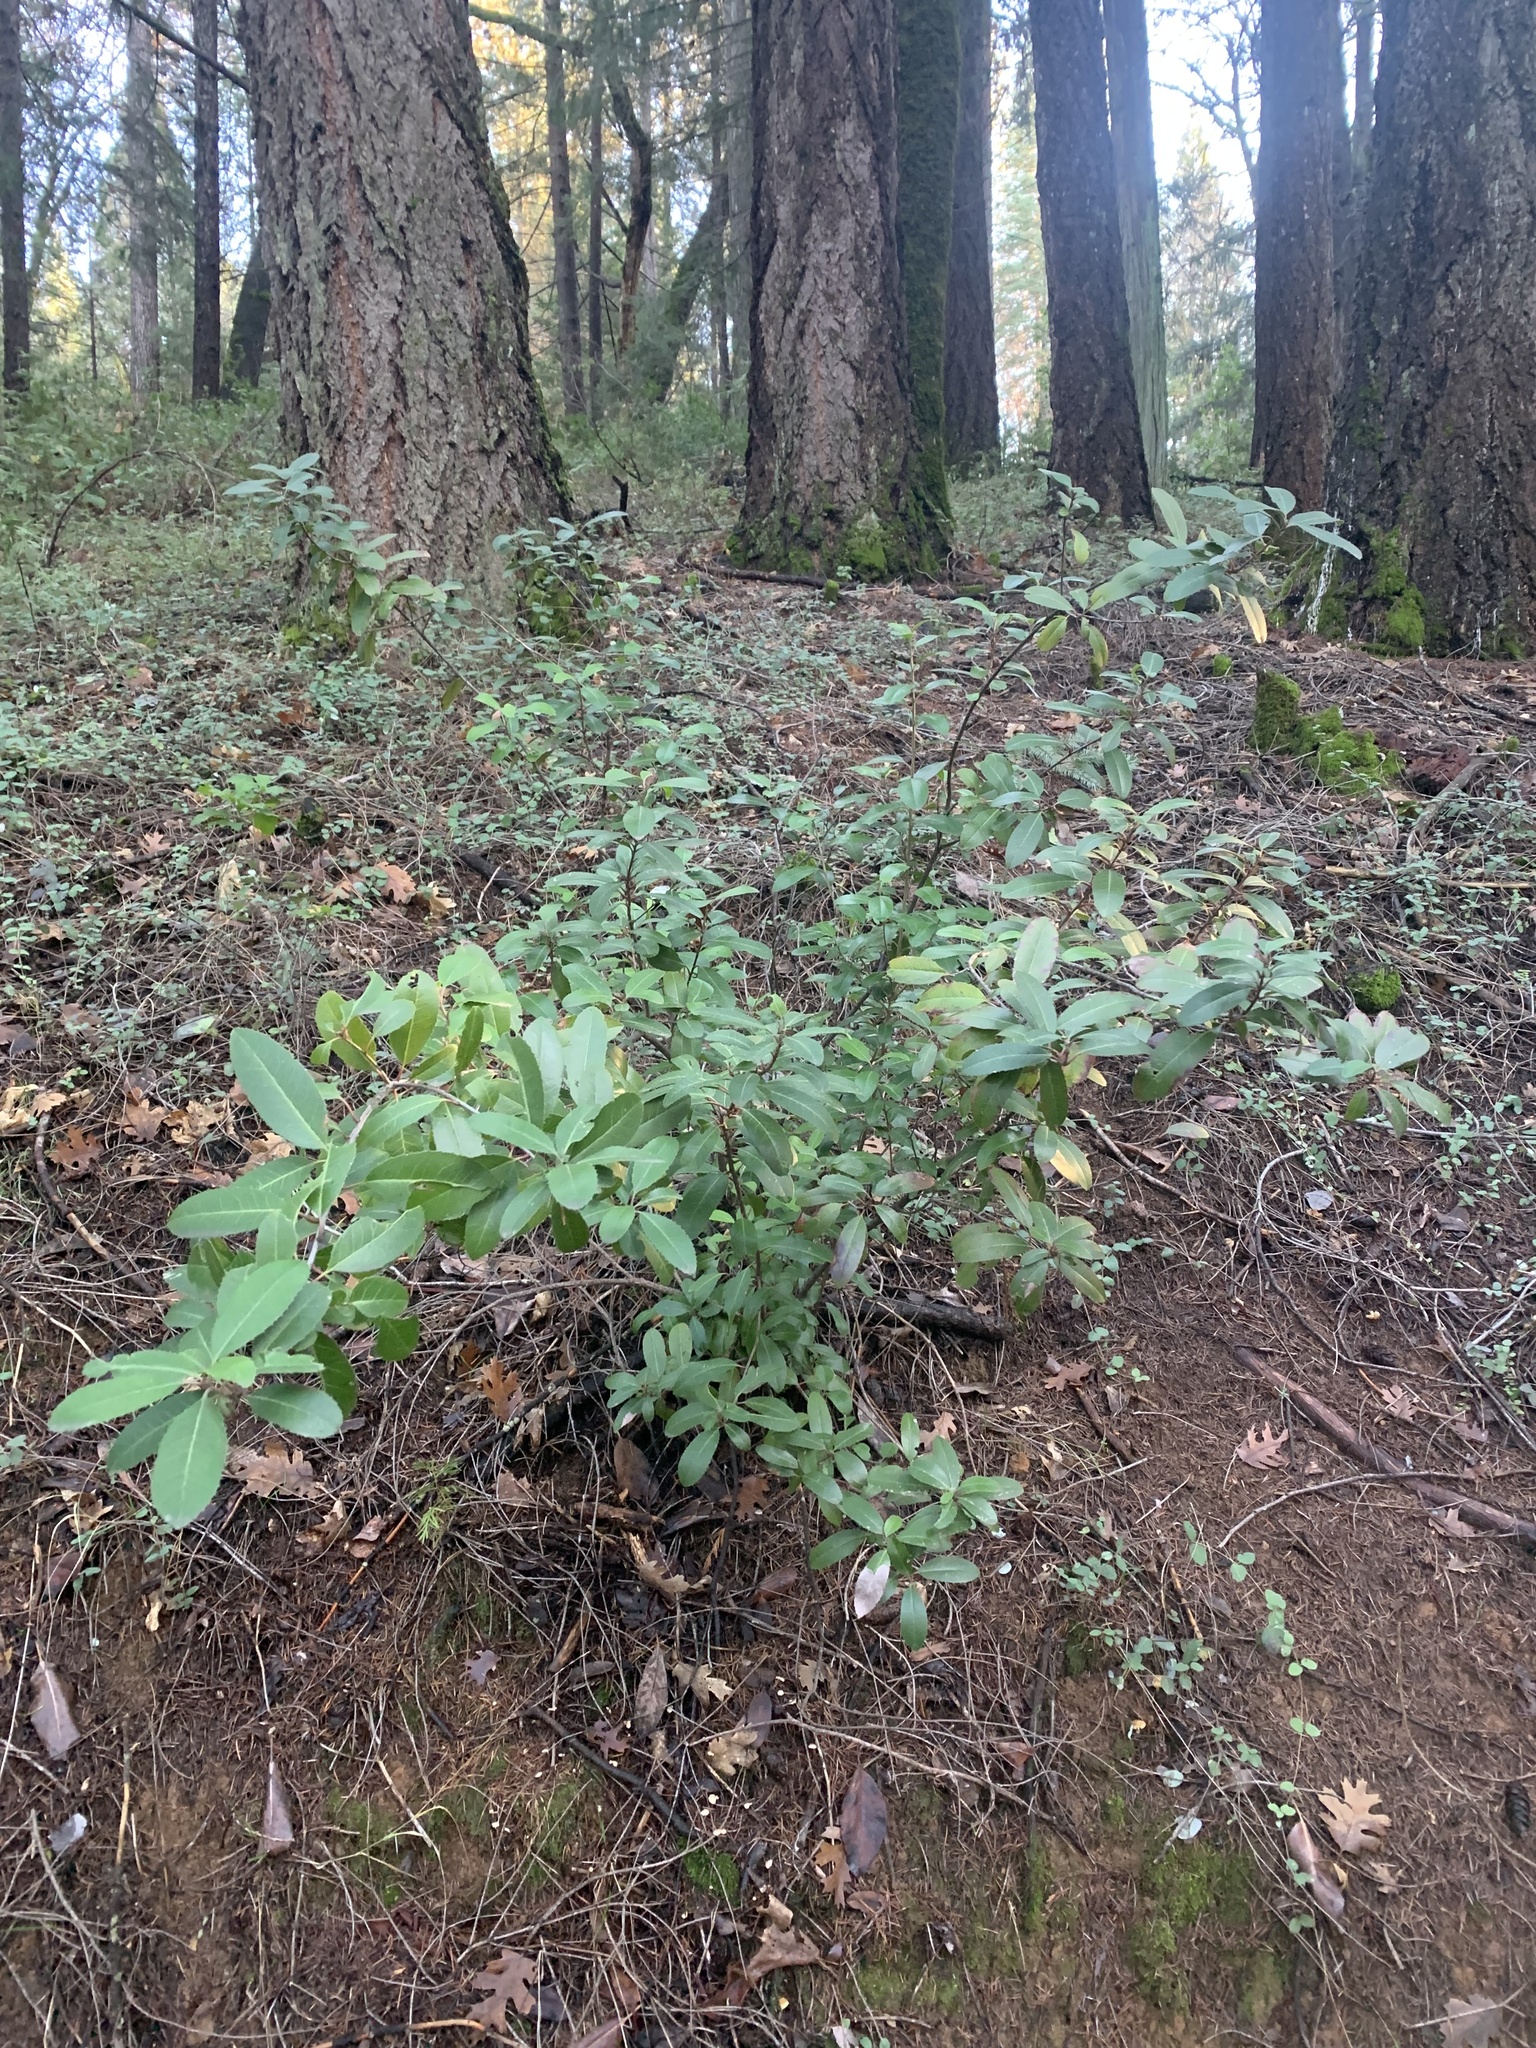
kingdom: Plantae
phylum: Tracheophyta
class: Magnoliopsida
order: Rosales
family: Rosaceae
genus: Heteromeles
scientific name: Heteromeles arbutifolia
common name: California-holly
